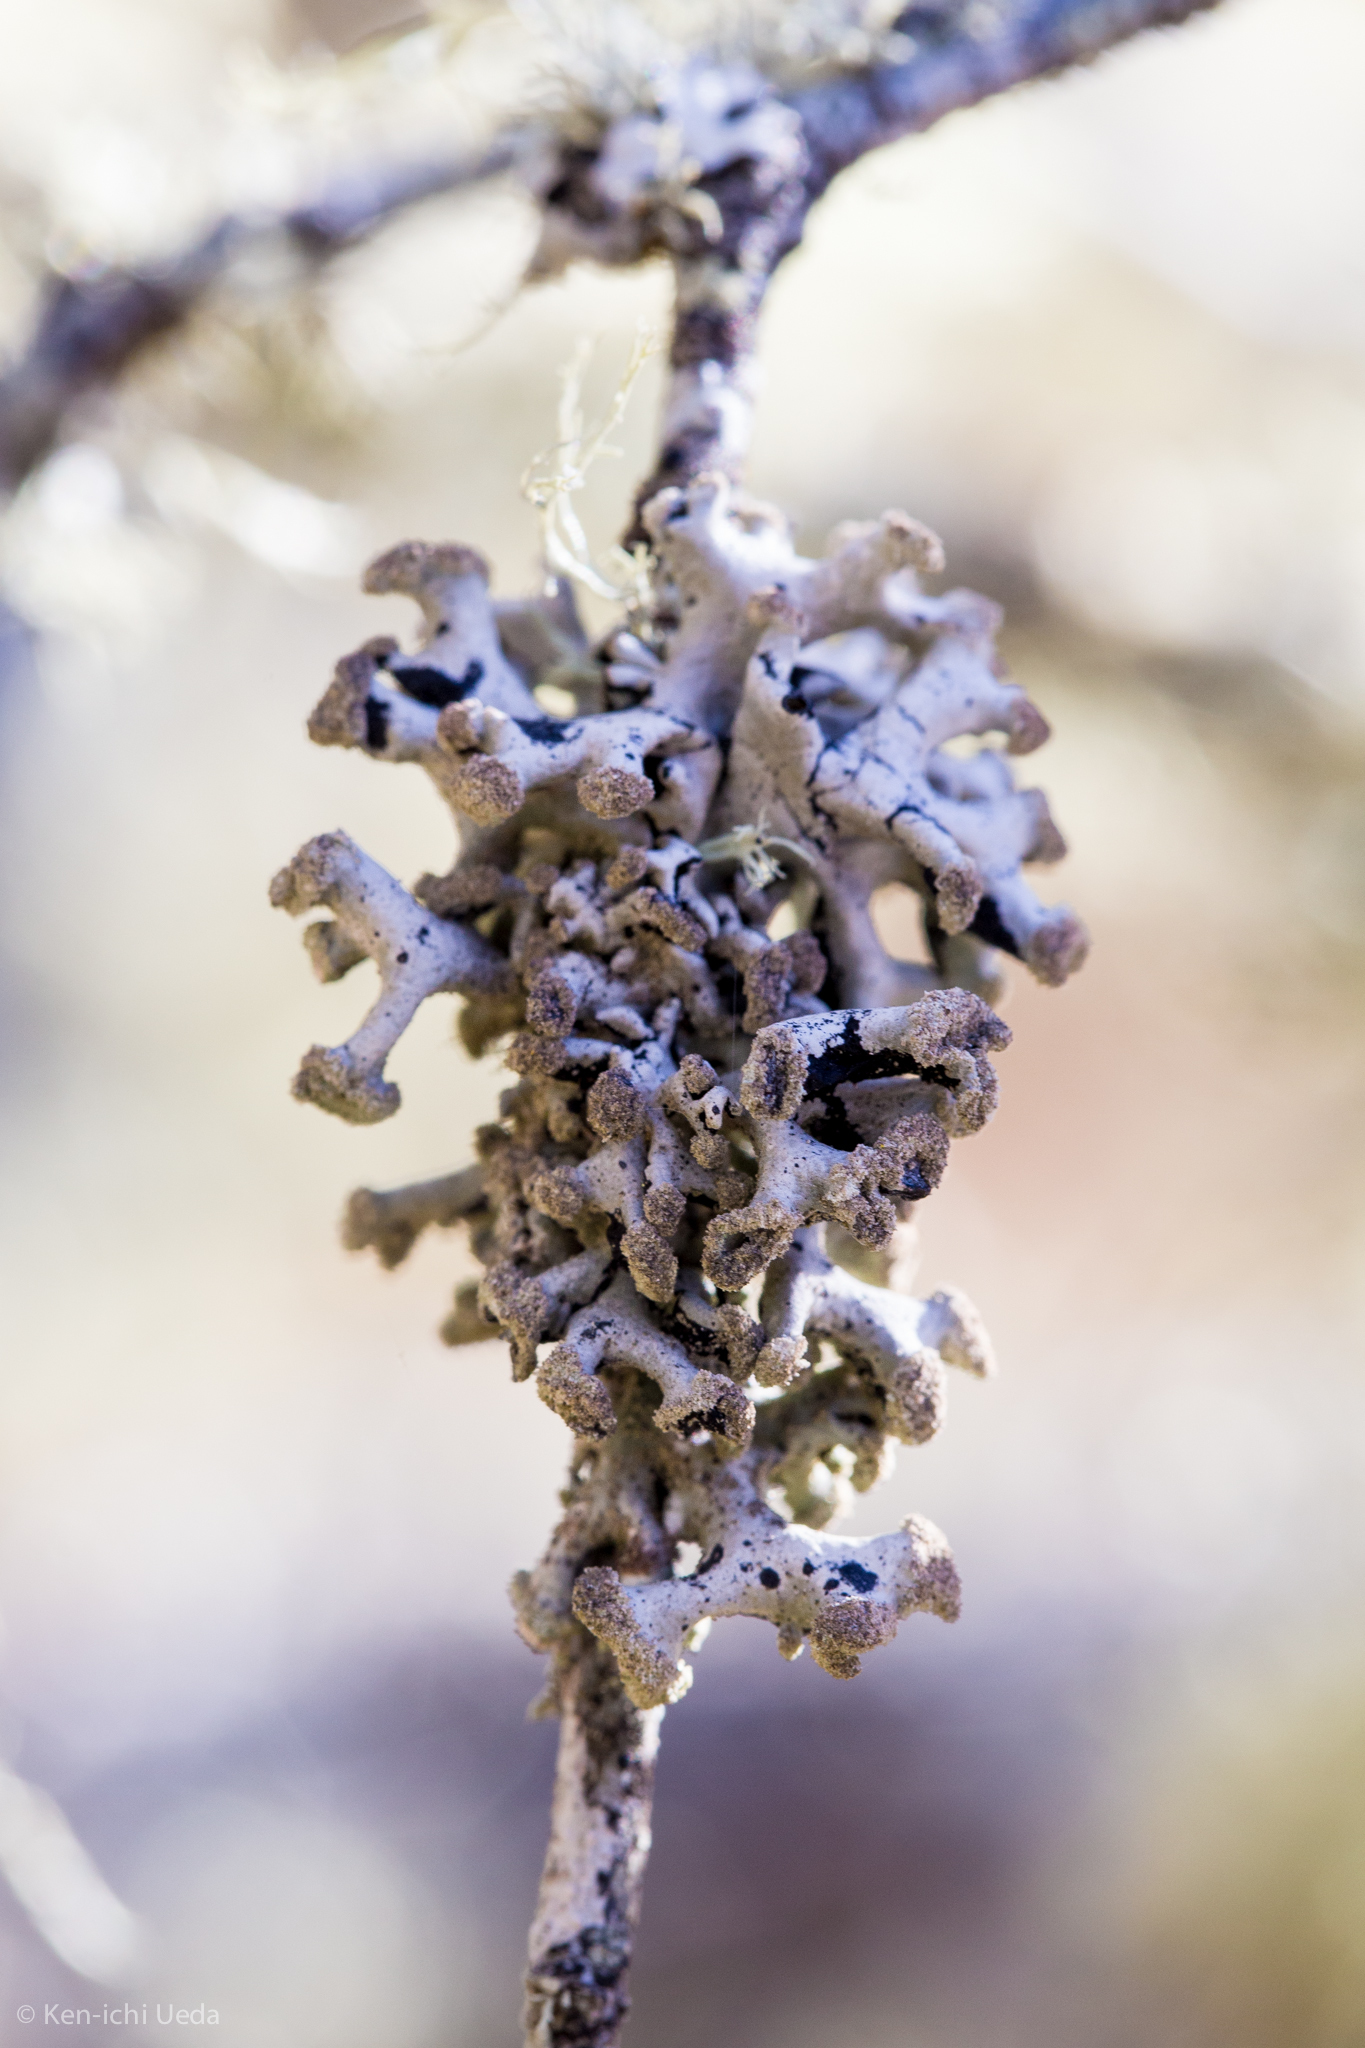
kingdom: Fungi
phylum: Ascomycota
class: Lecanoromycetes
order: Lecanorales
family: Parmeliaceae
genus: Hypogymnia
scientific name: Hypogymnia tubulosa
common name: Powder-headed tube lichen
